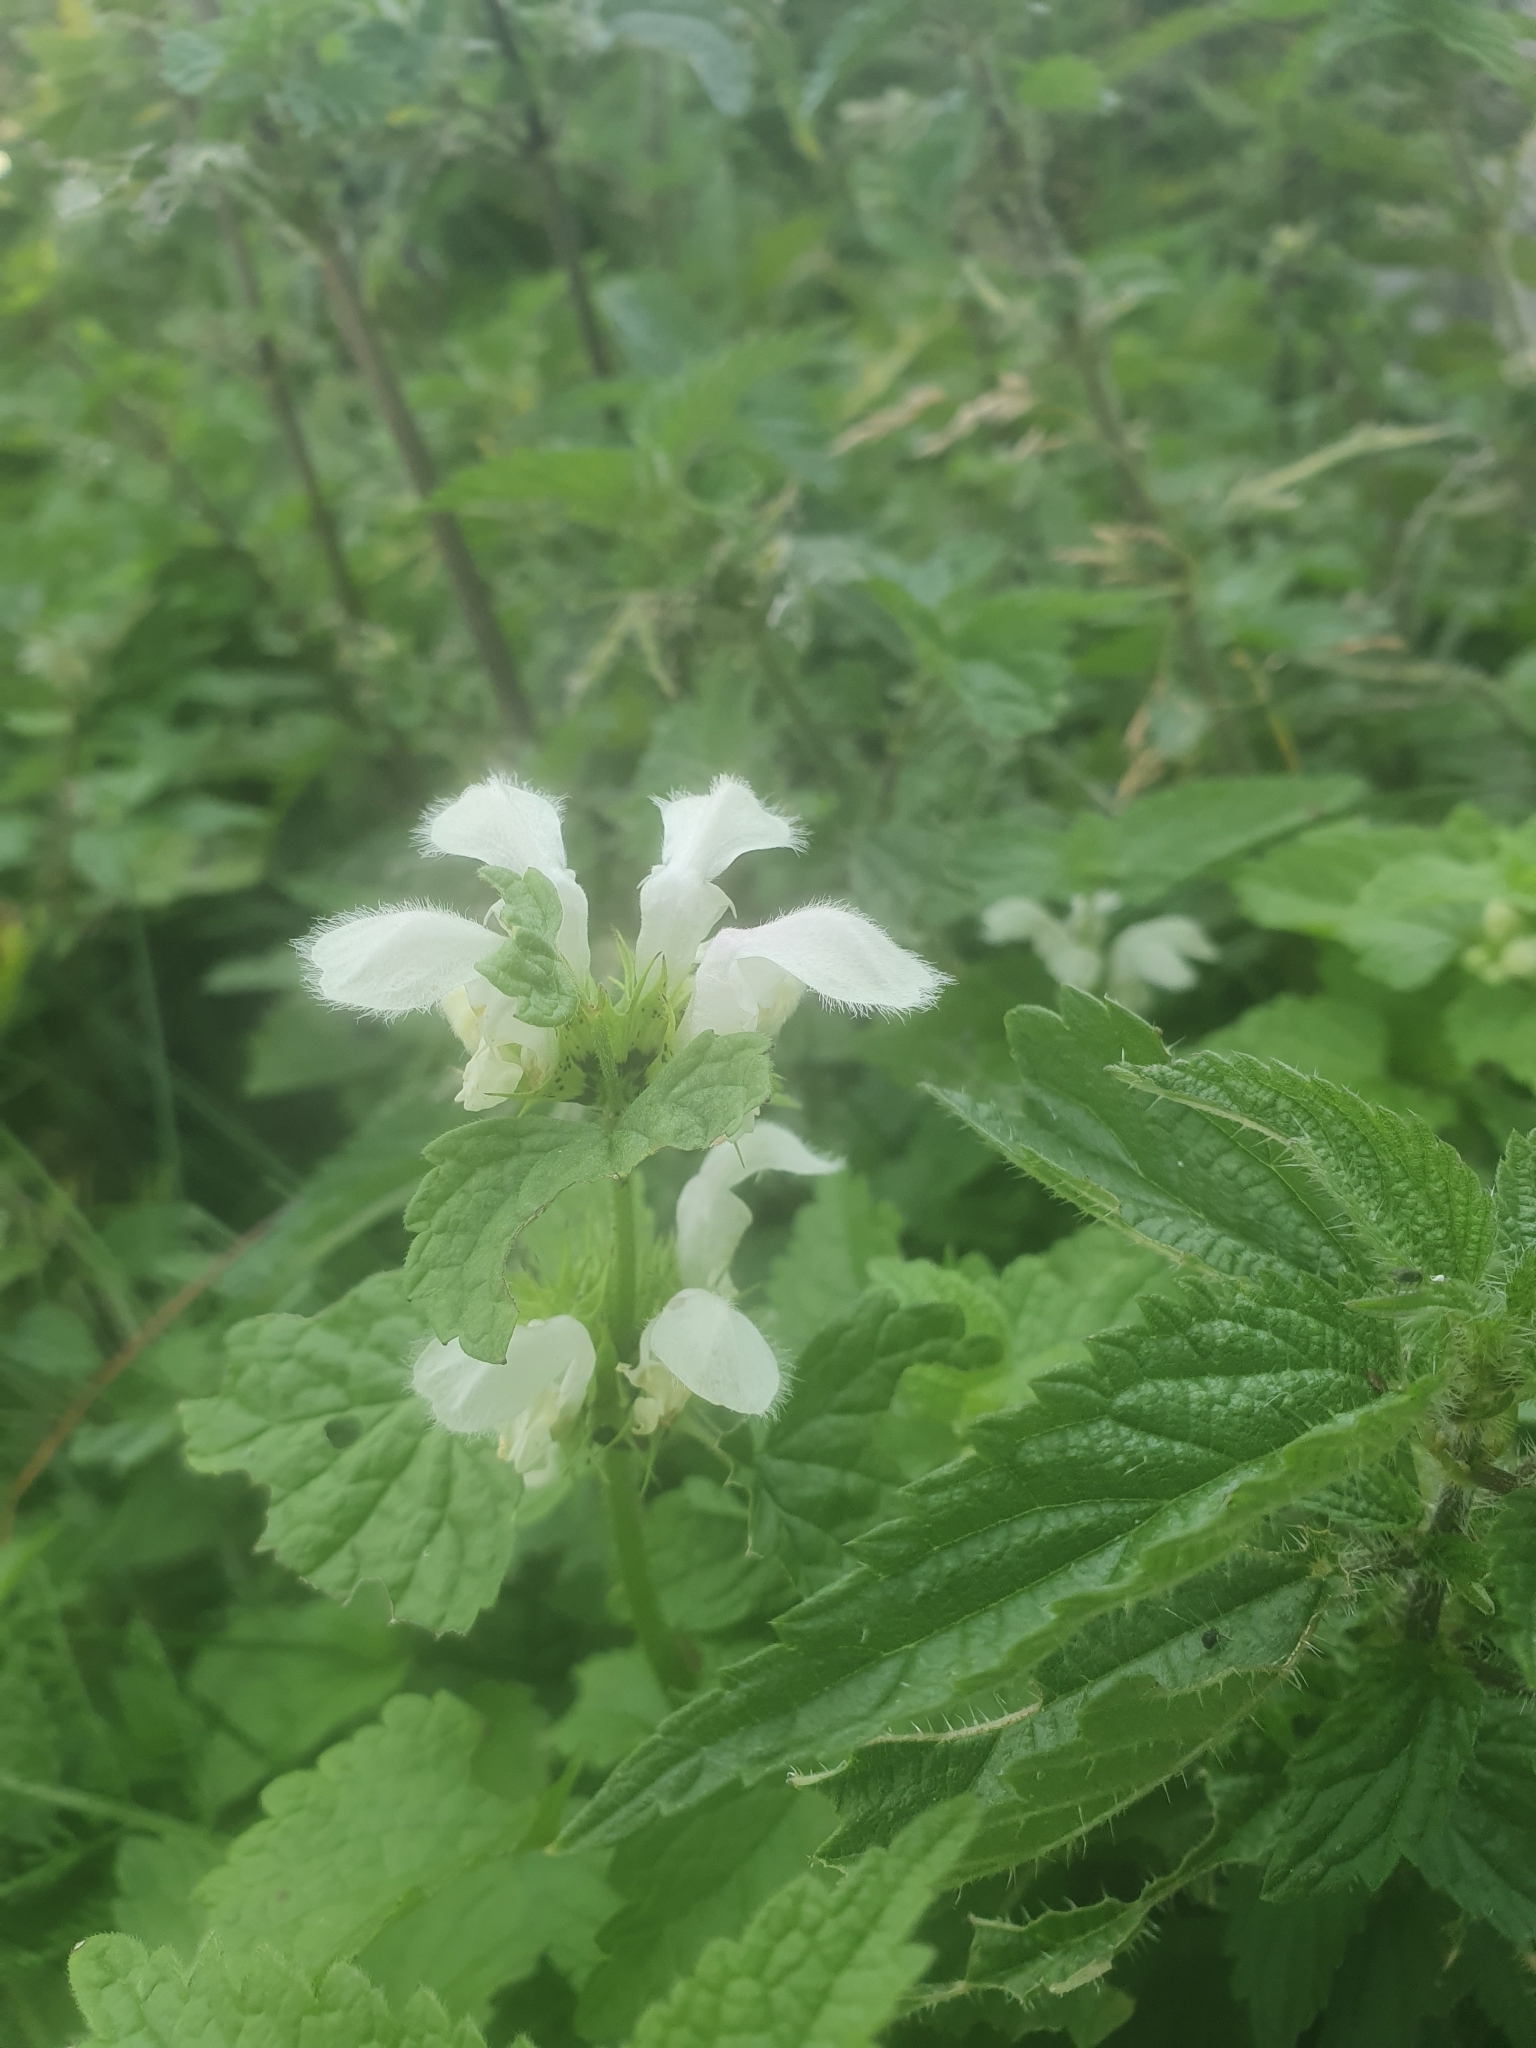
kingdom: Plantae
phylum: Tracheophyta
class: Magnoliopsida
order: Lamiales
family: Lamiaceae
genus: Lamium
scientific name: Lamium album
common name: White dead-nettle
